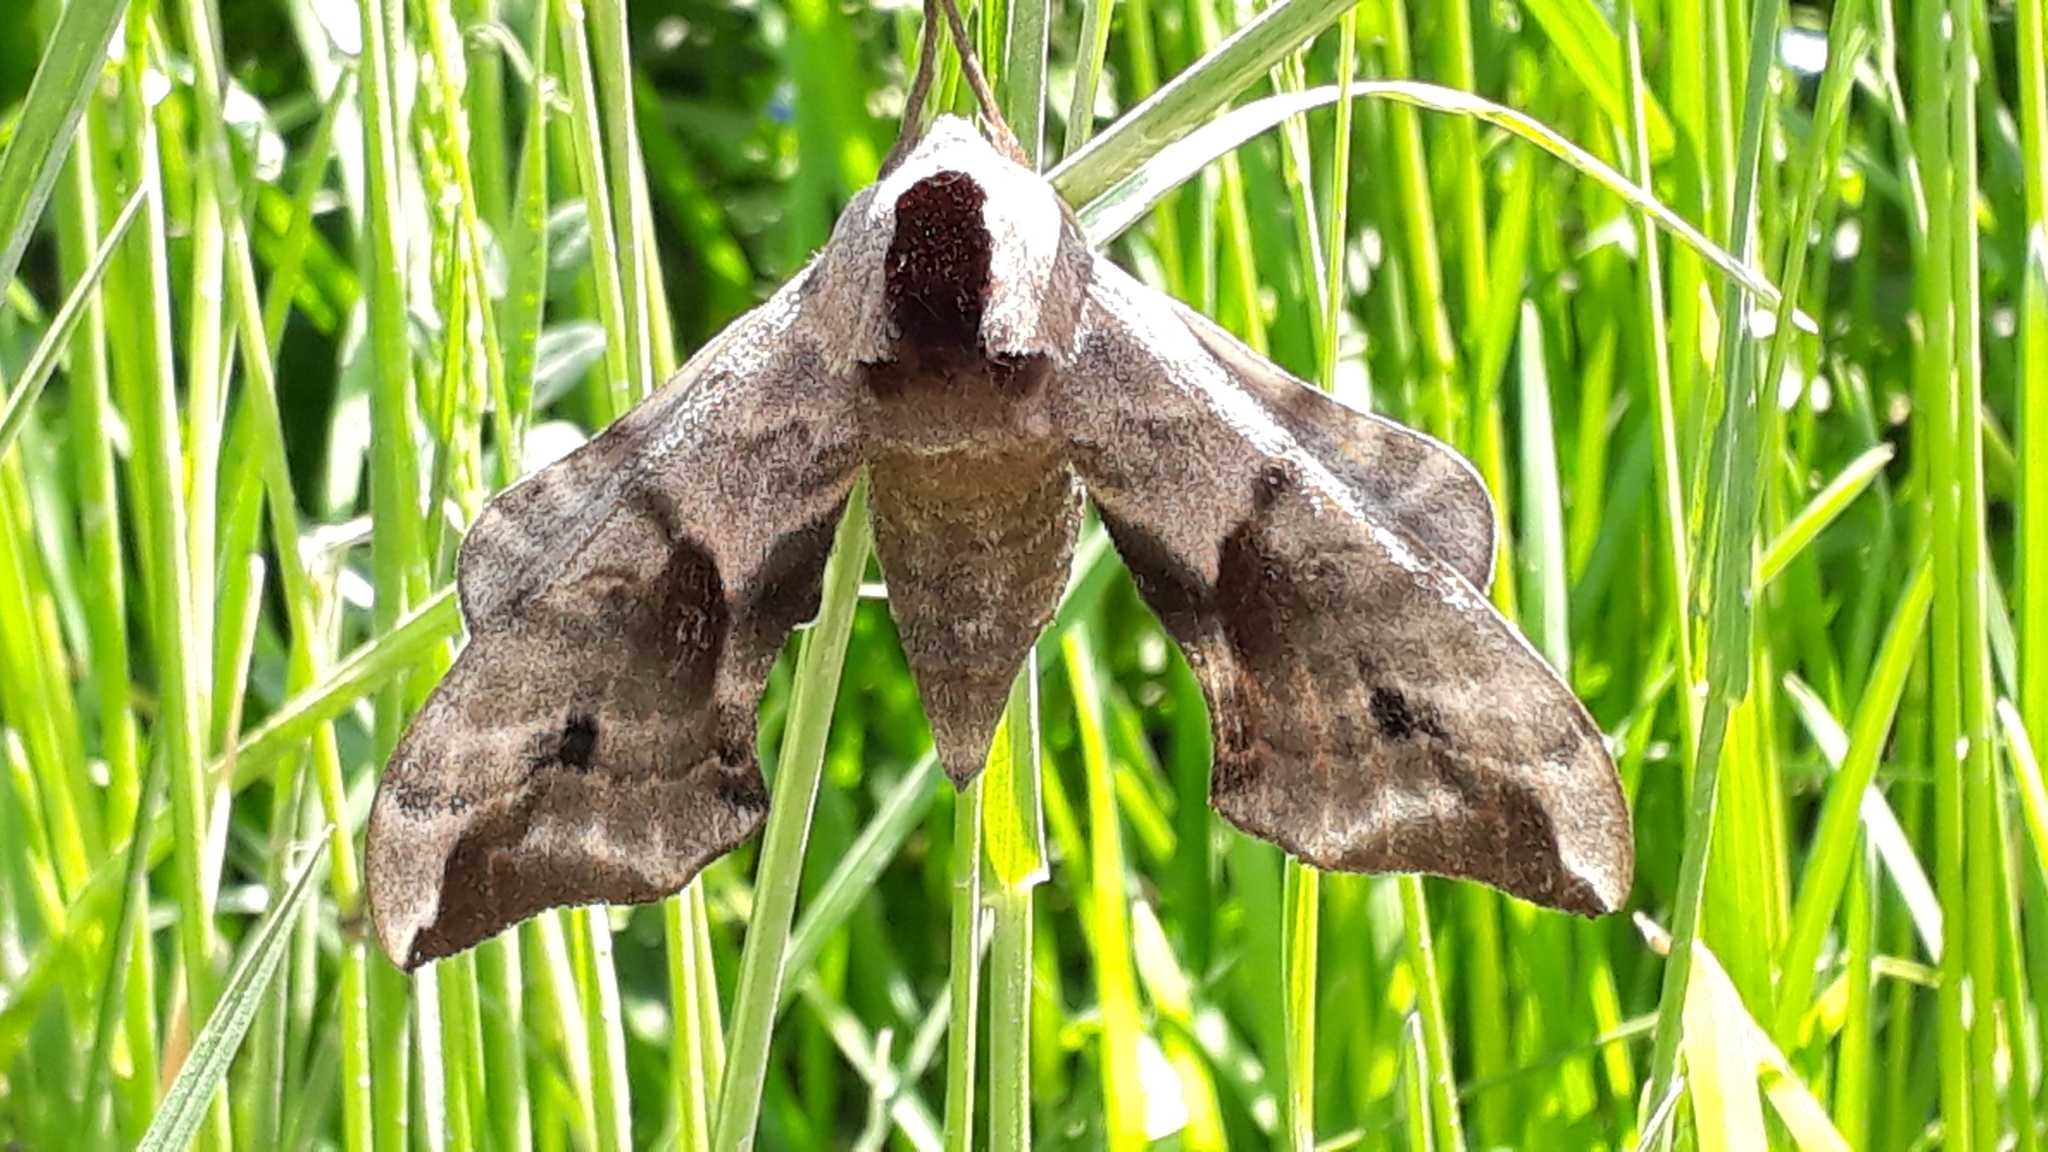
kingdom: Animalia
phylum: Arthropoda
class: Insecta
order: Lepidoptera
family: Sphingidae
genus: Smerinthus
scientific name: Smerinthus ocellata
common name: Eyed hawk-moth
